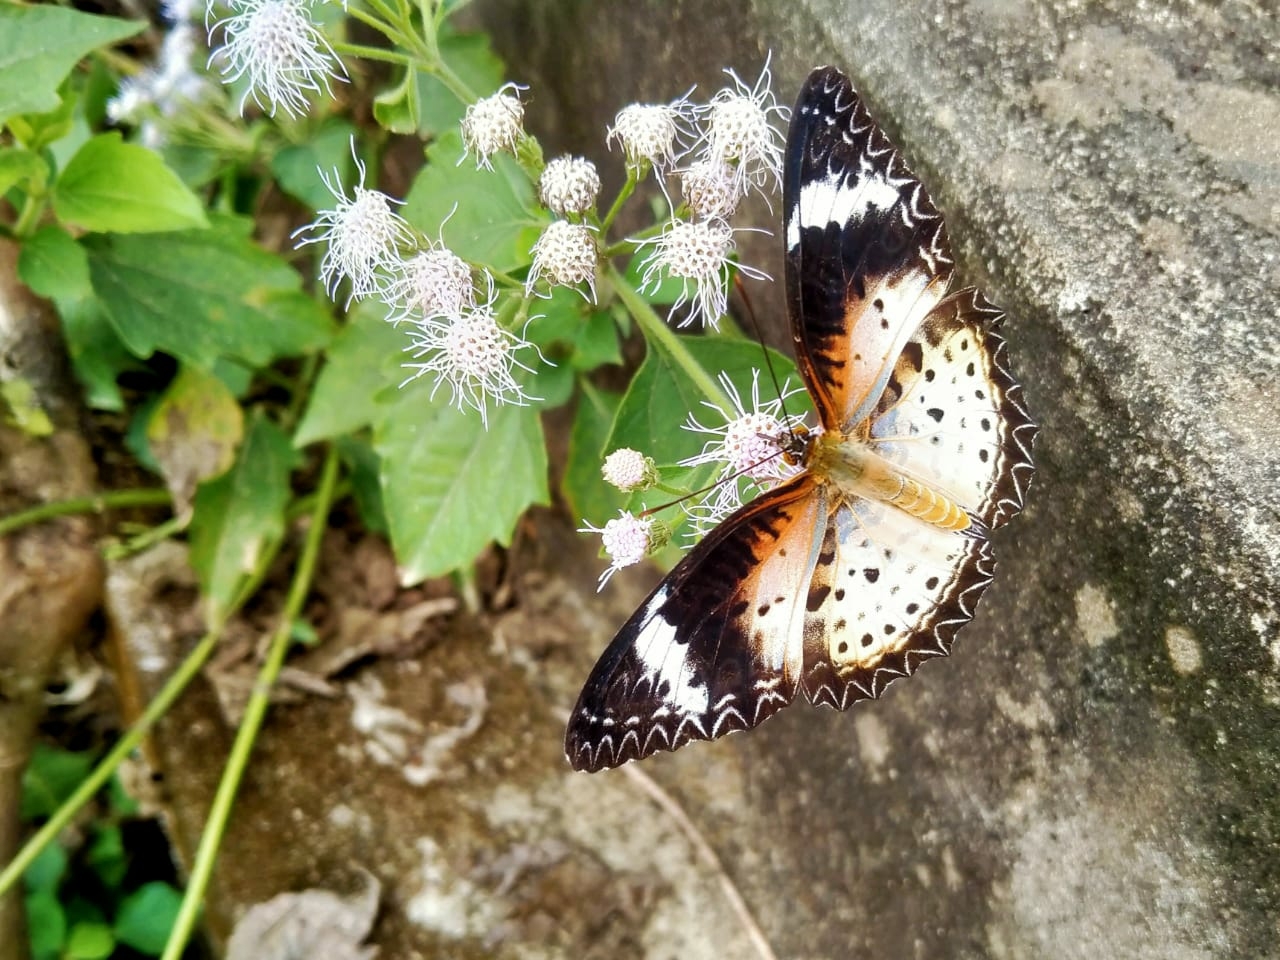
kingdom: Animalia
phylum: Arthropoda
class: Insecta
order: Lepidoptera
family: Nymphalidae
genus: Cethosia
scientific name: Cethosia cyane
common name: Leopard lacewing butterfly
